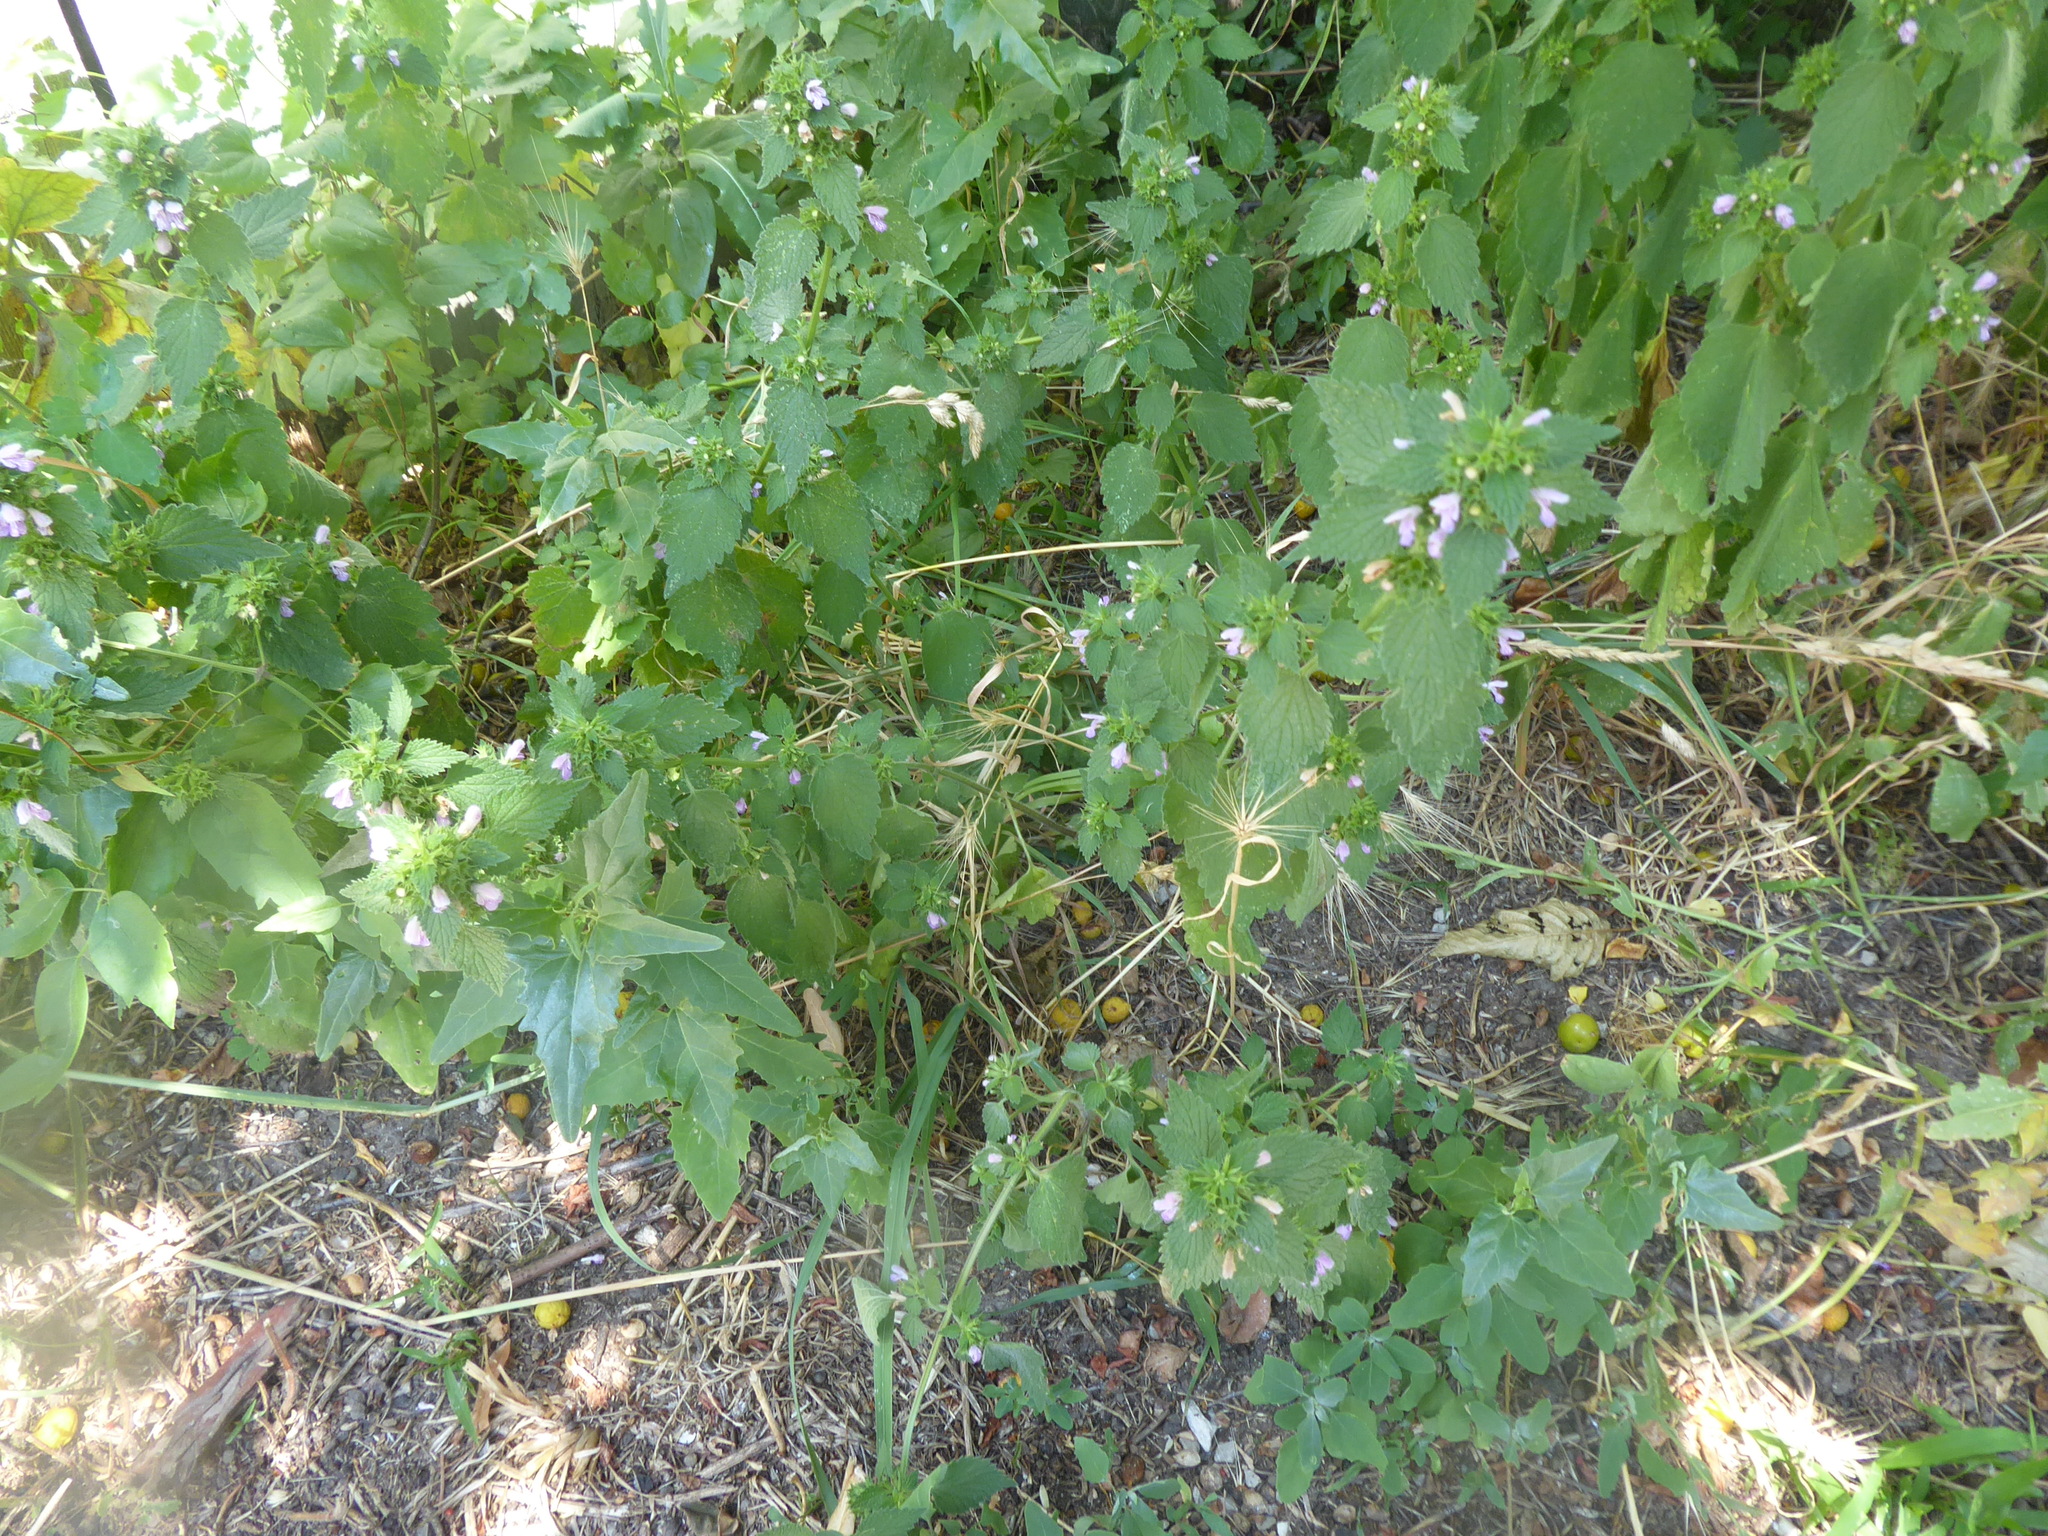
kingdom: Plantae
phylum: Tracheophyta
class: Magnoliopsida
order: Lamiales
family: Lamiaceae
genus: Ballota
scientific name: Ballota nigra
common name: Black horehound
